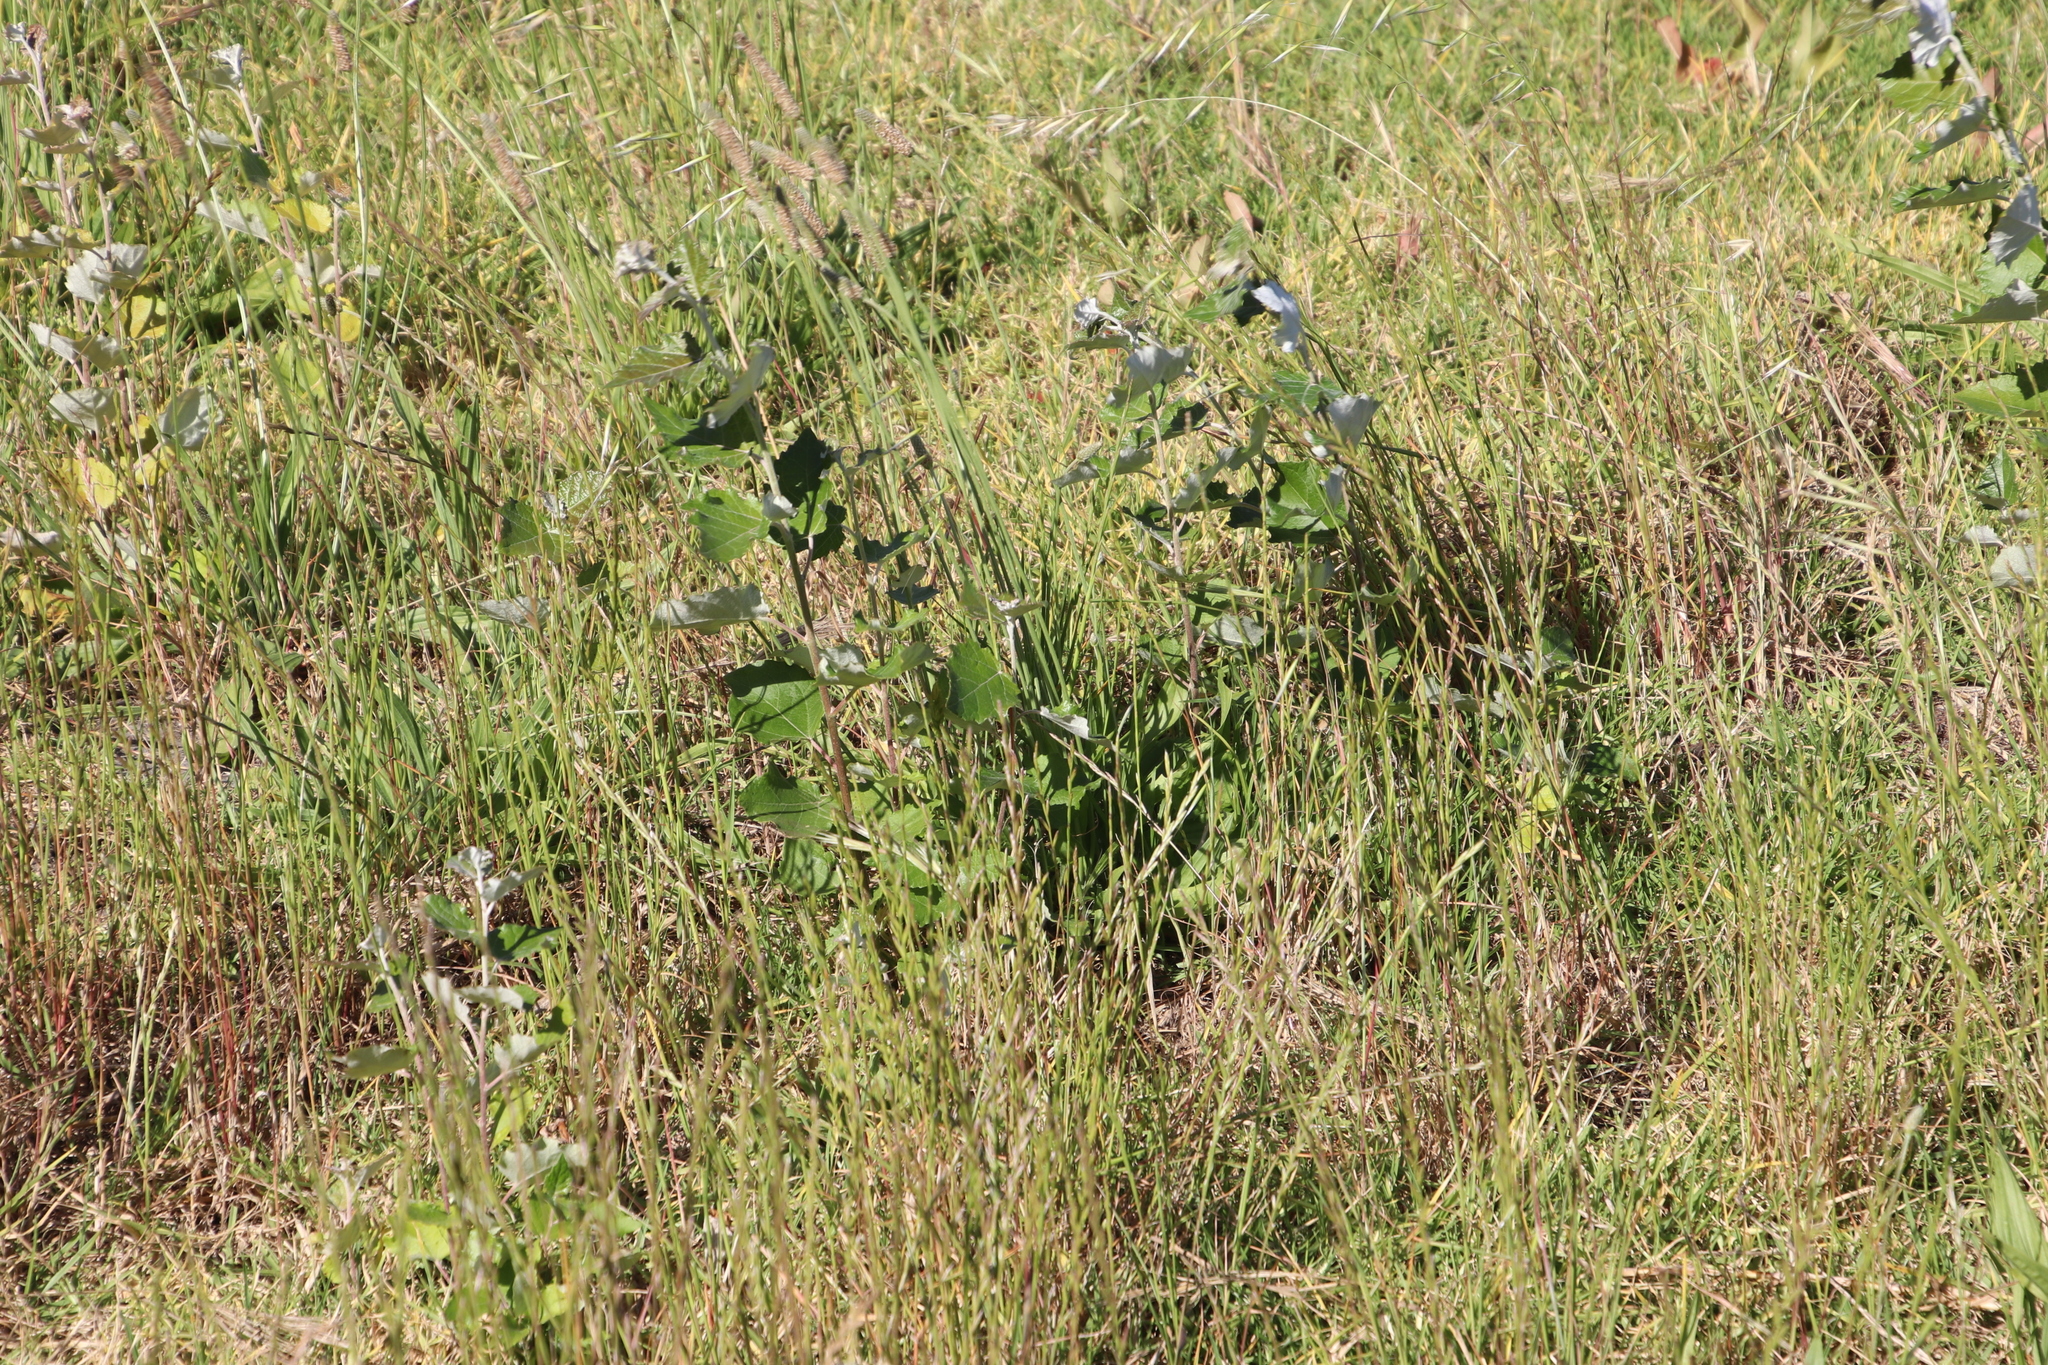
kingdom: Plantae
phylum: Tracheophyta
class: Magnoliopsida
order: Malpighiales
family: Salicaceae
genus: Populus
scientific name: Populus canescens
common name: Gray poplar
